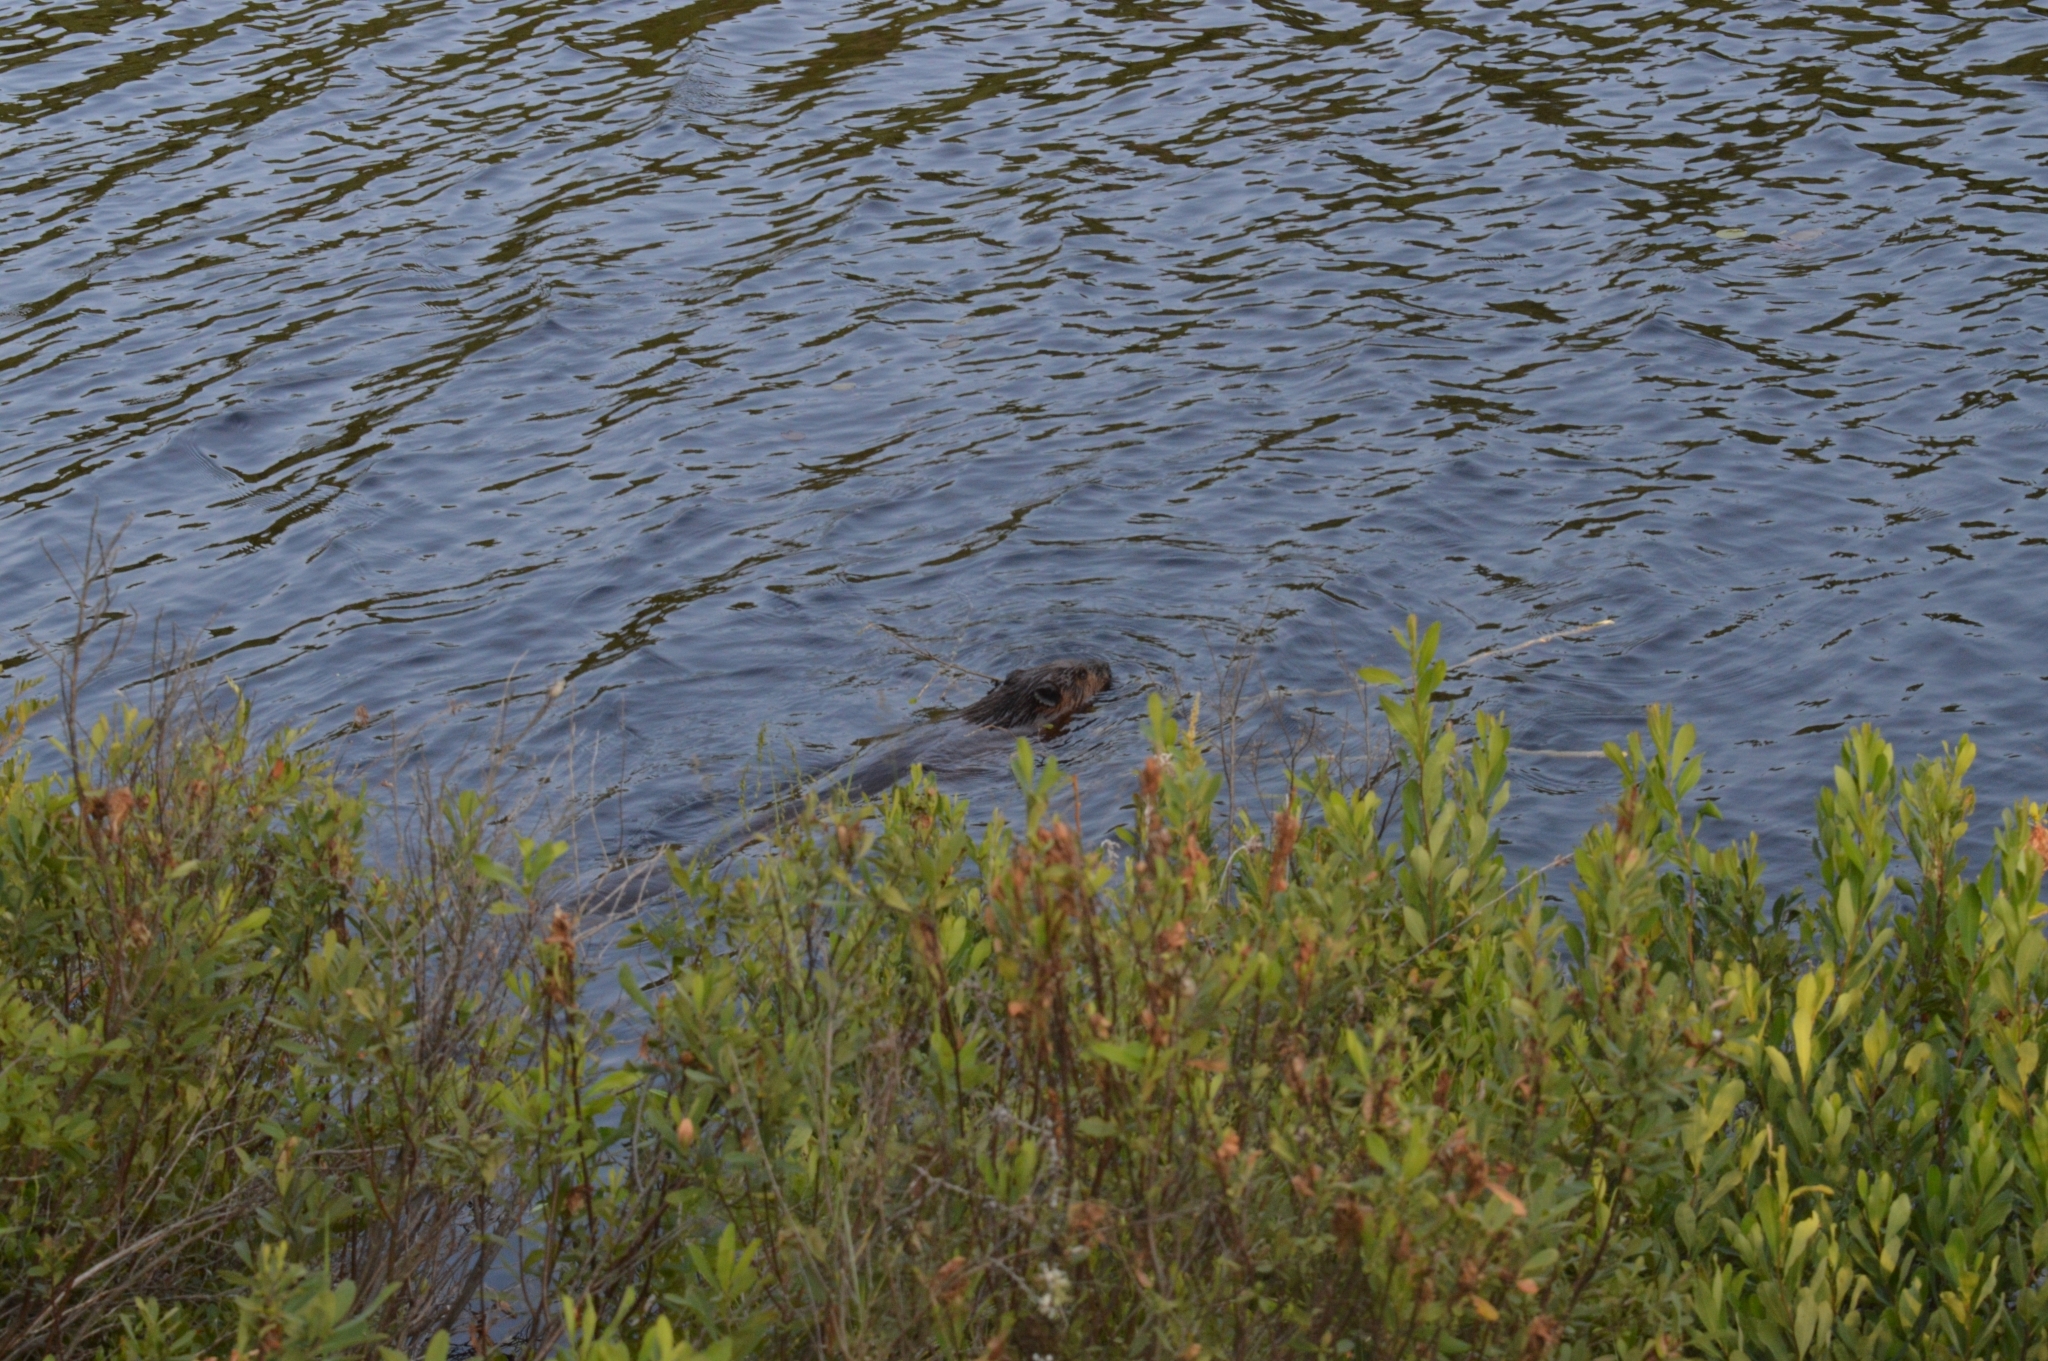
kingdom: Animalia
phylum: Chordata
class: Mammalia
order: Rodentia
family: Castoridae
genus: Castor
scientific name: Castor canadensis
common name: American beaver
